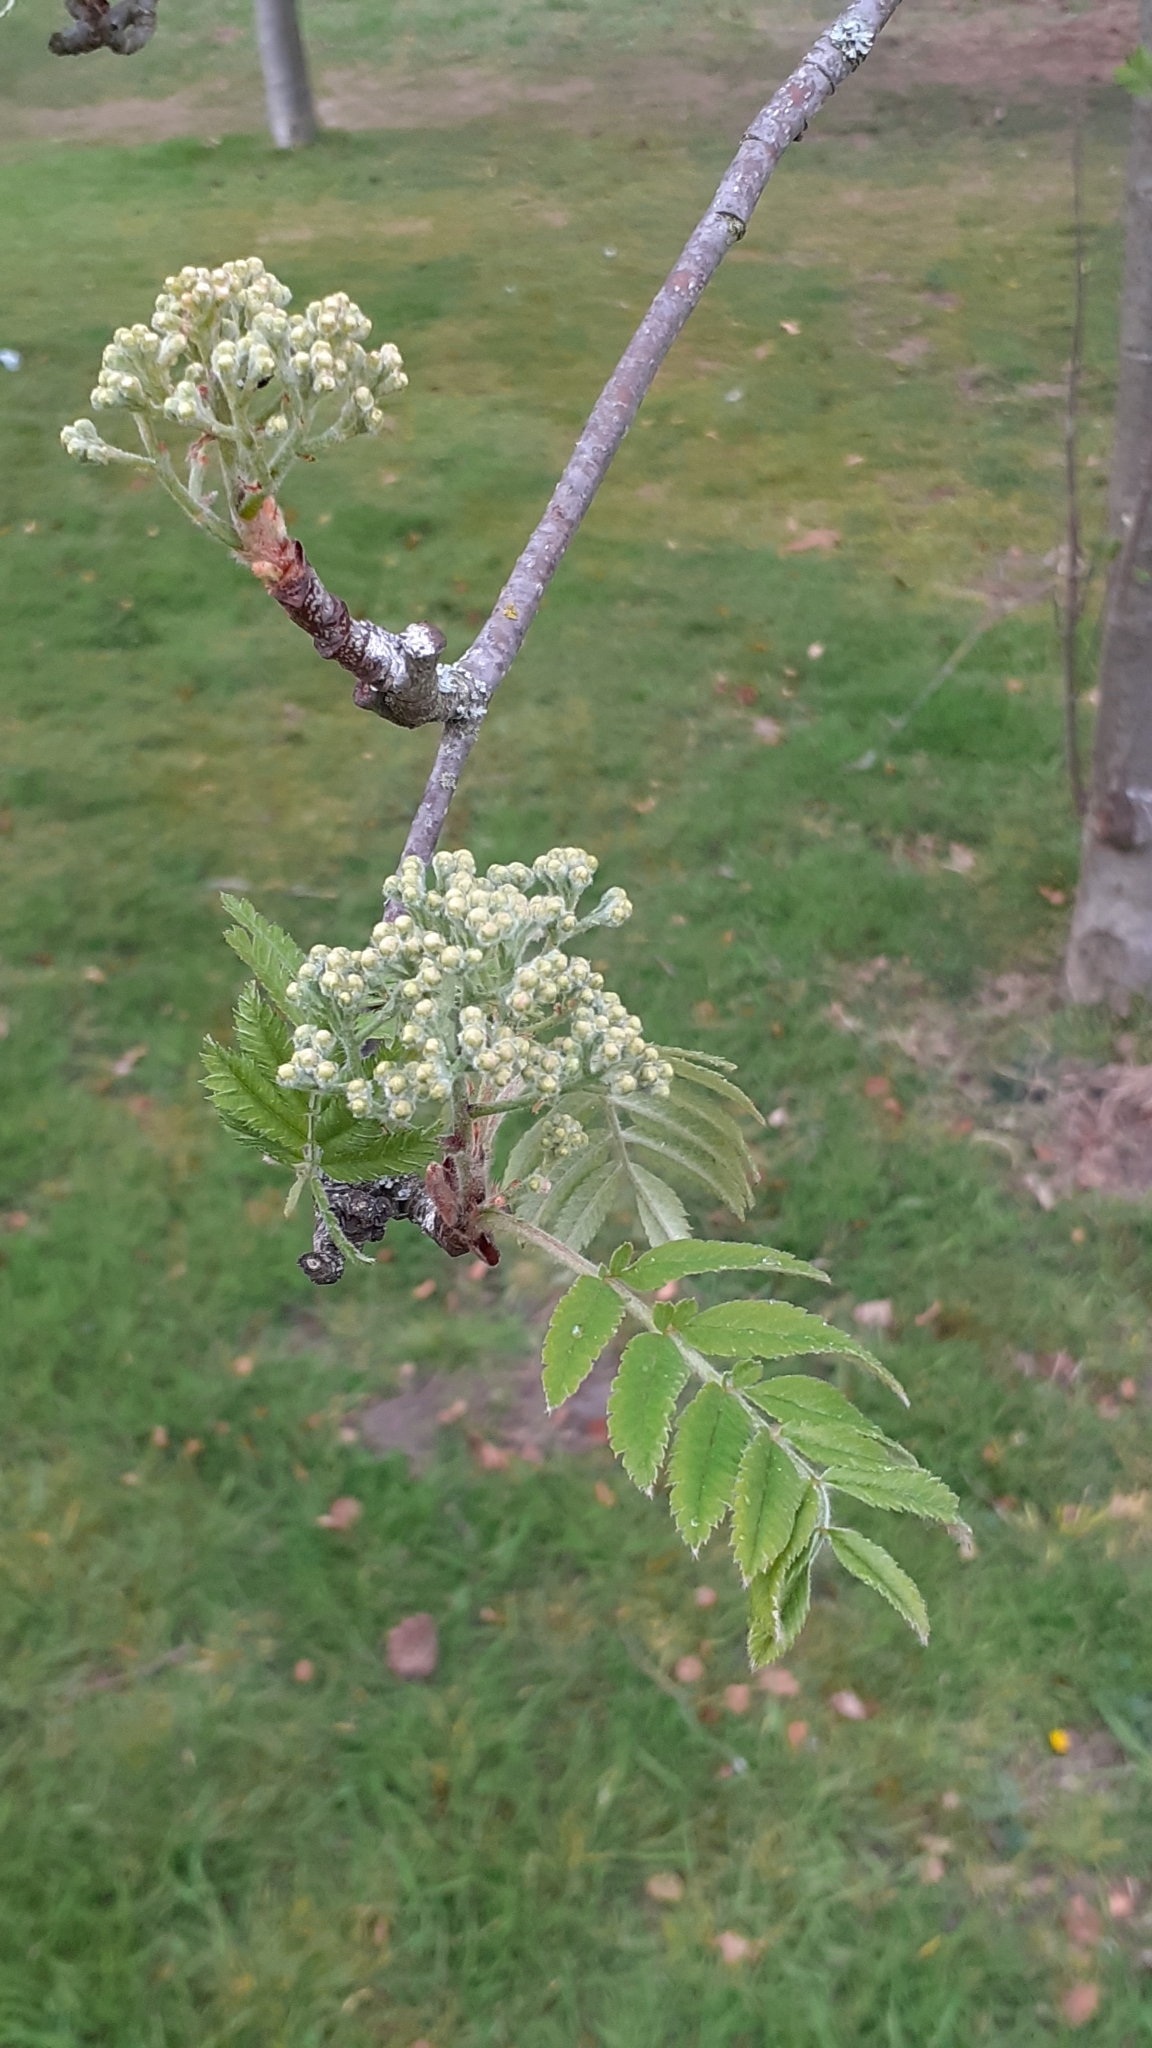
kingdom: Plantae
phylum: Tracheophyta
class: Magnoliopsida
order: Rosales
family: Rosaceae
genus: Sorbus
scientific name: Sorbus aucuparia
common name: Rowan
